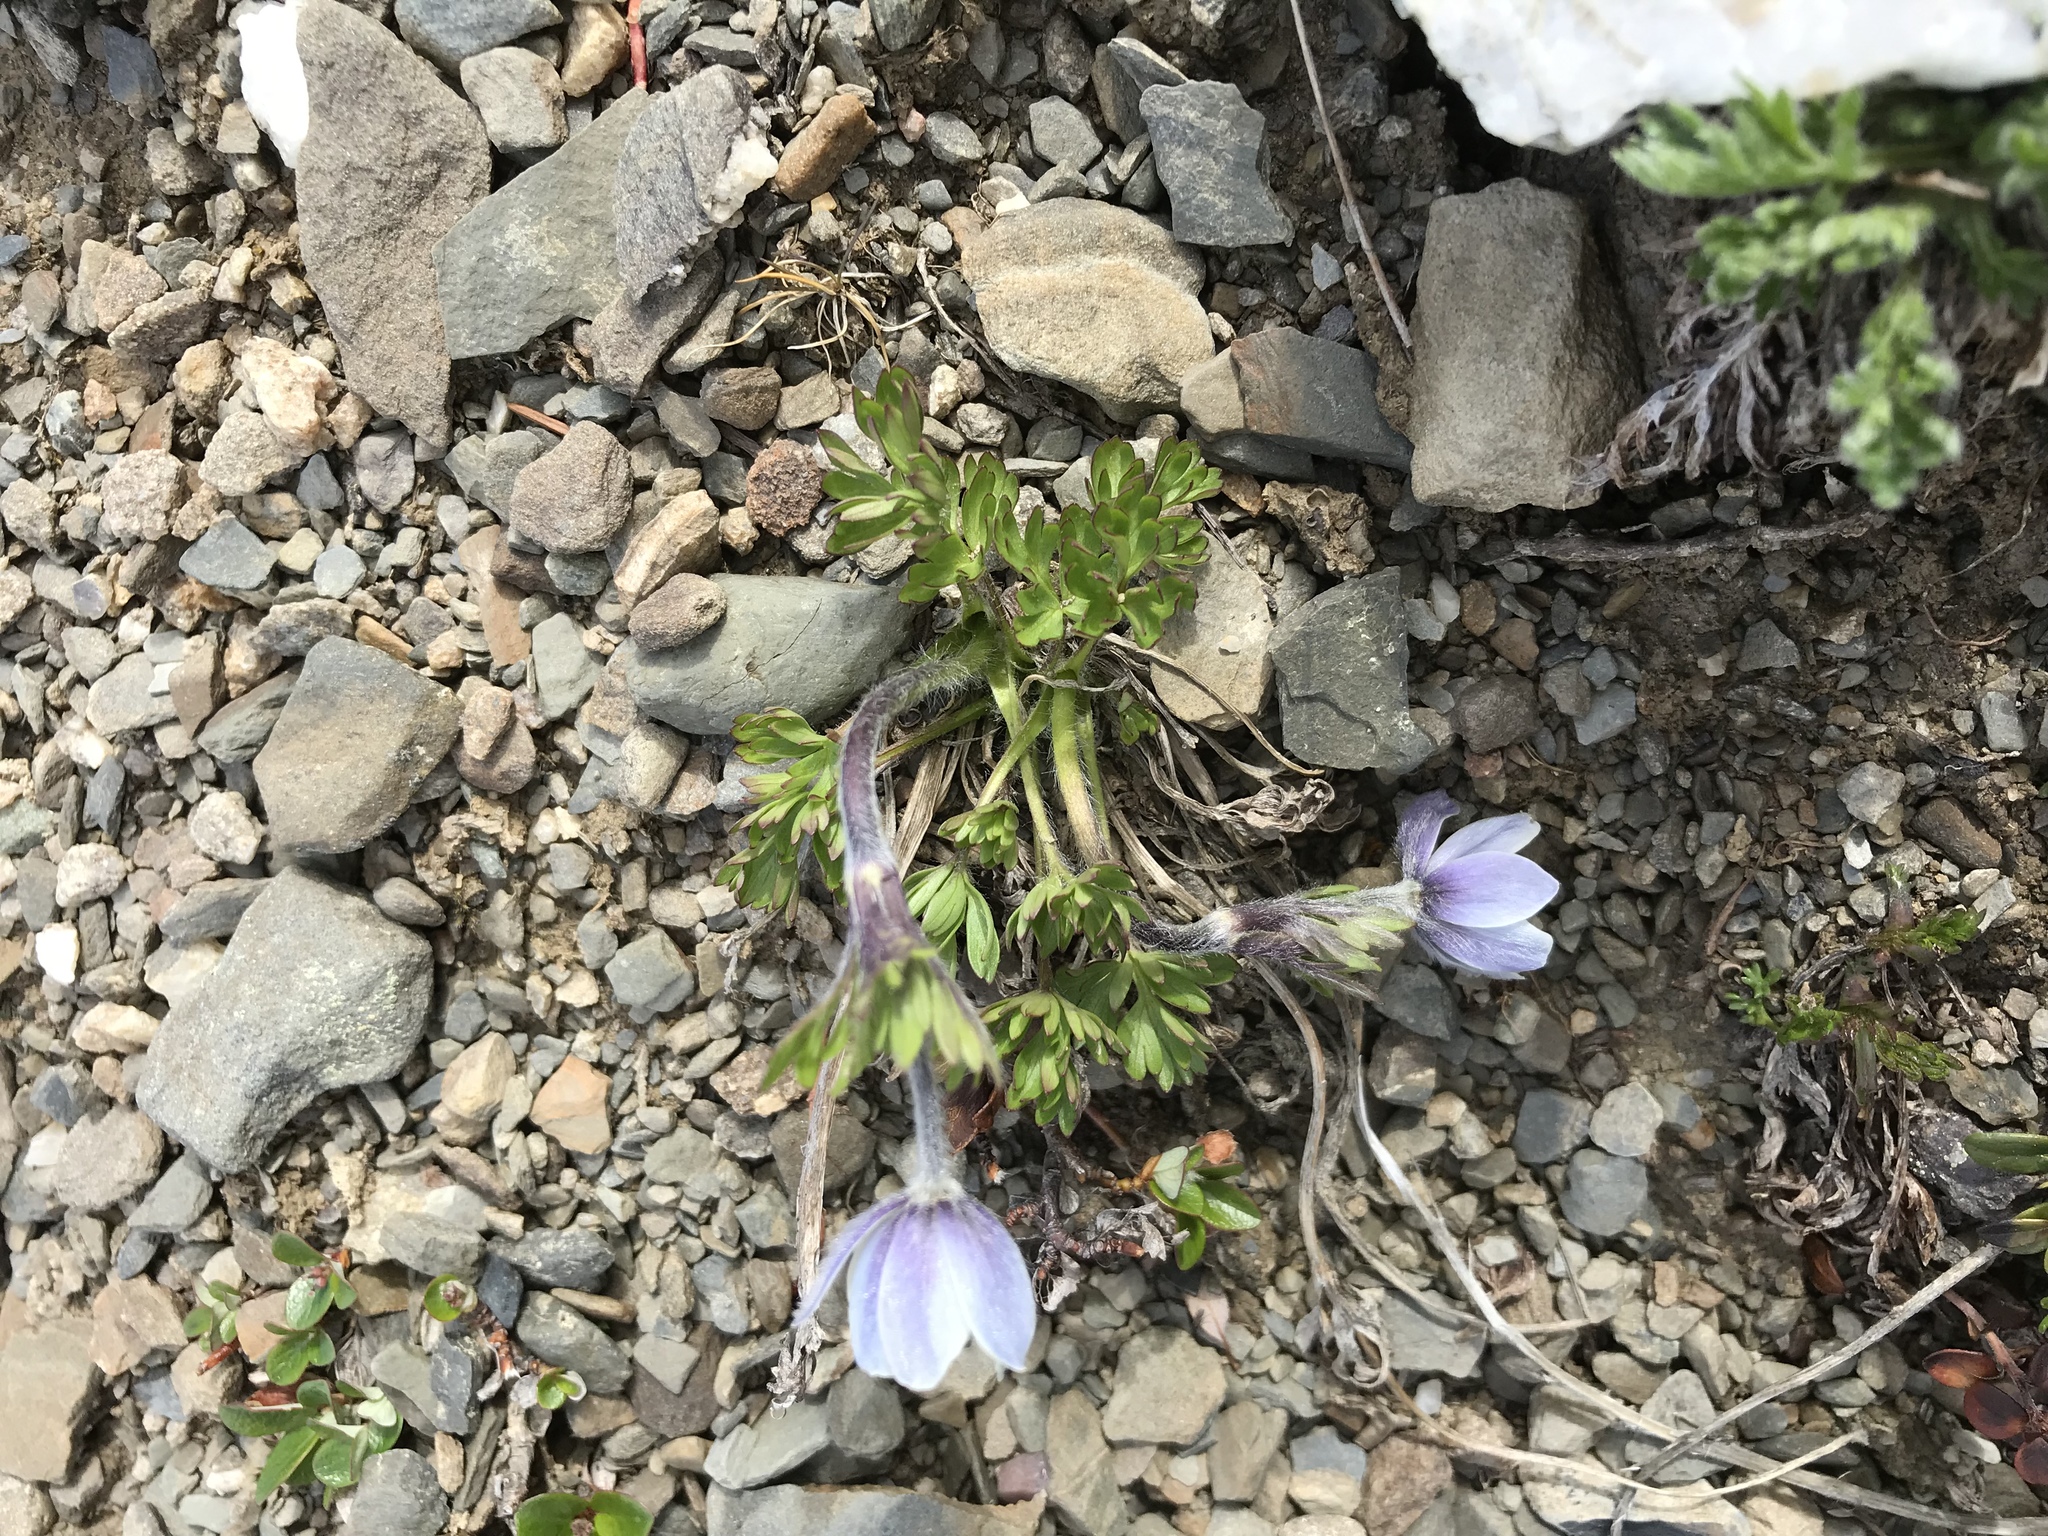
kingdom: Plantae
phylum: Tracheophyta
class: Magnoliopsida
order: Ranunculales
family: Ranunculaceae
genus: Anemone
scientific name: Anemone lithophila
